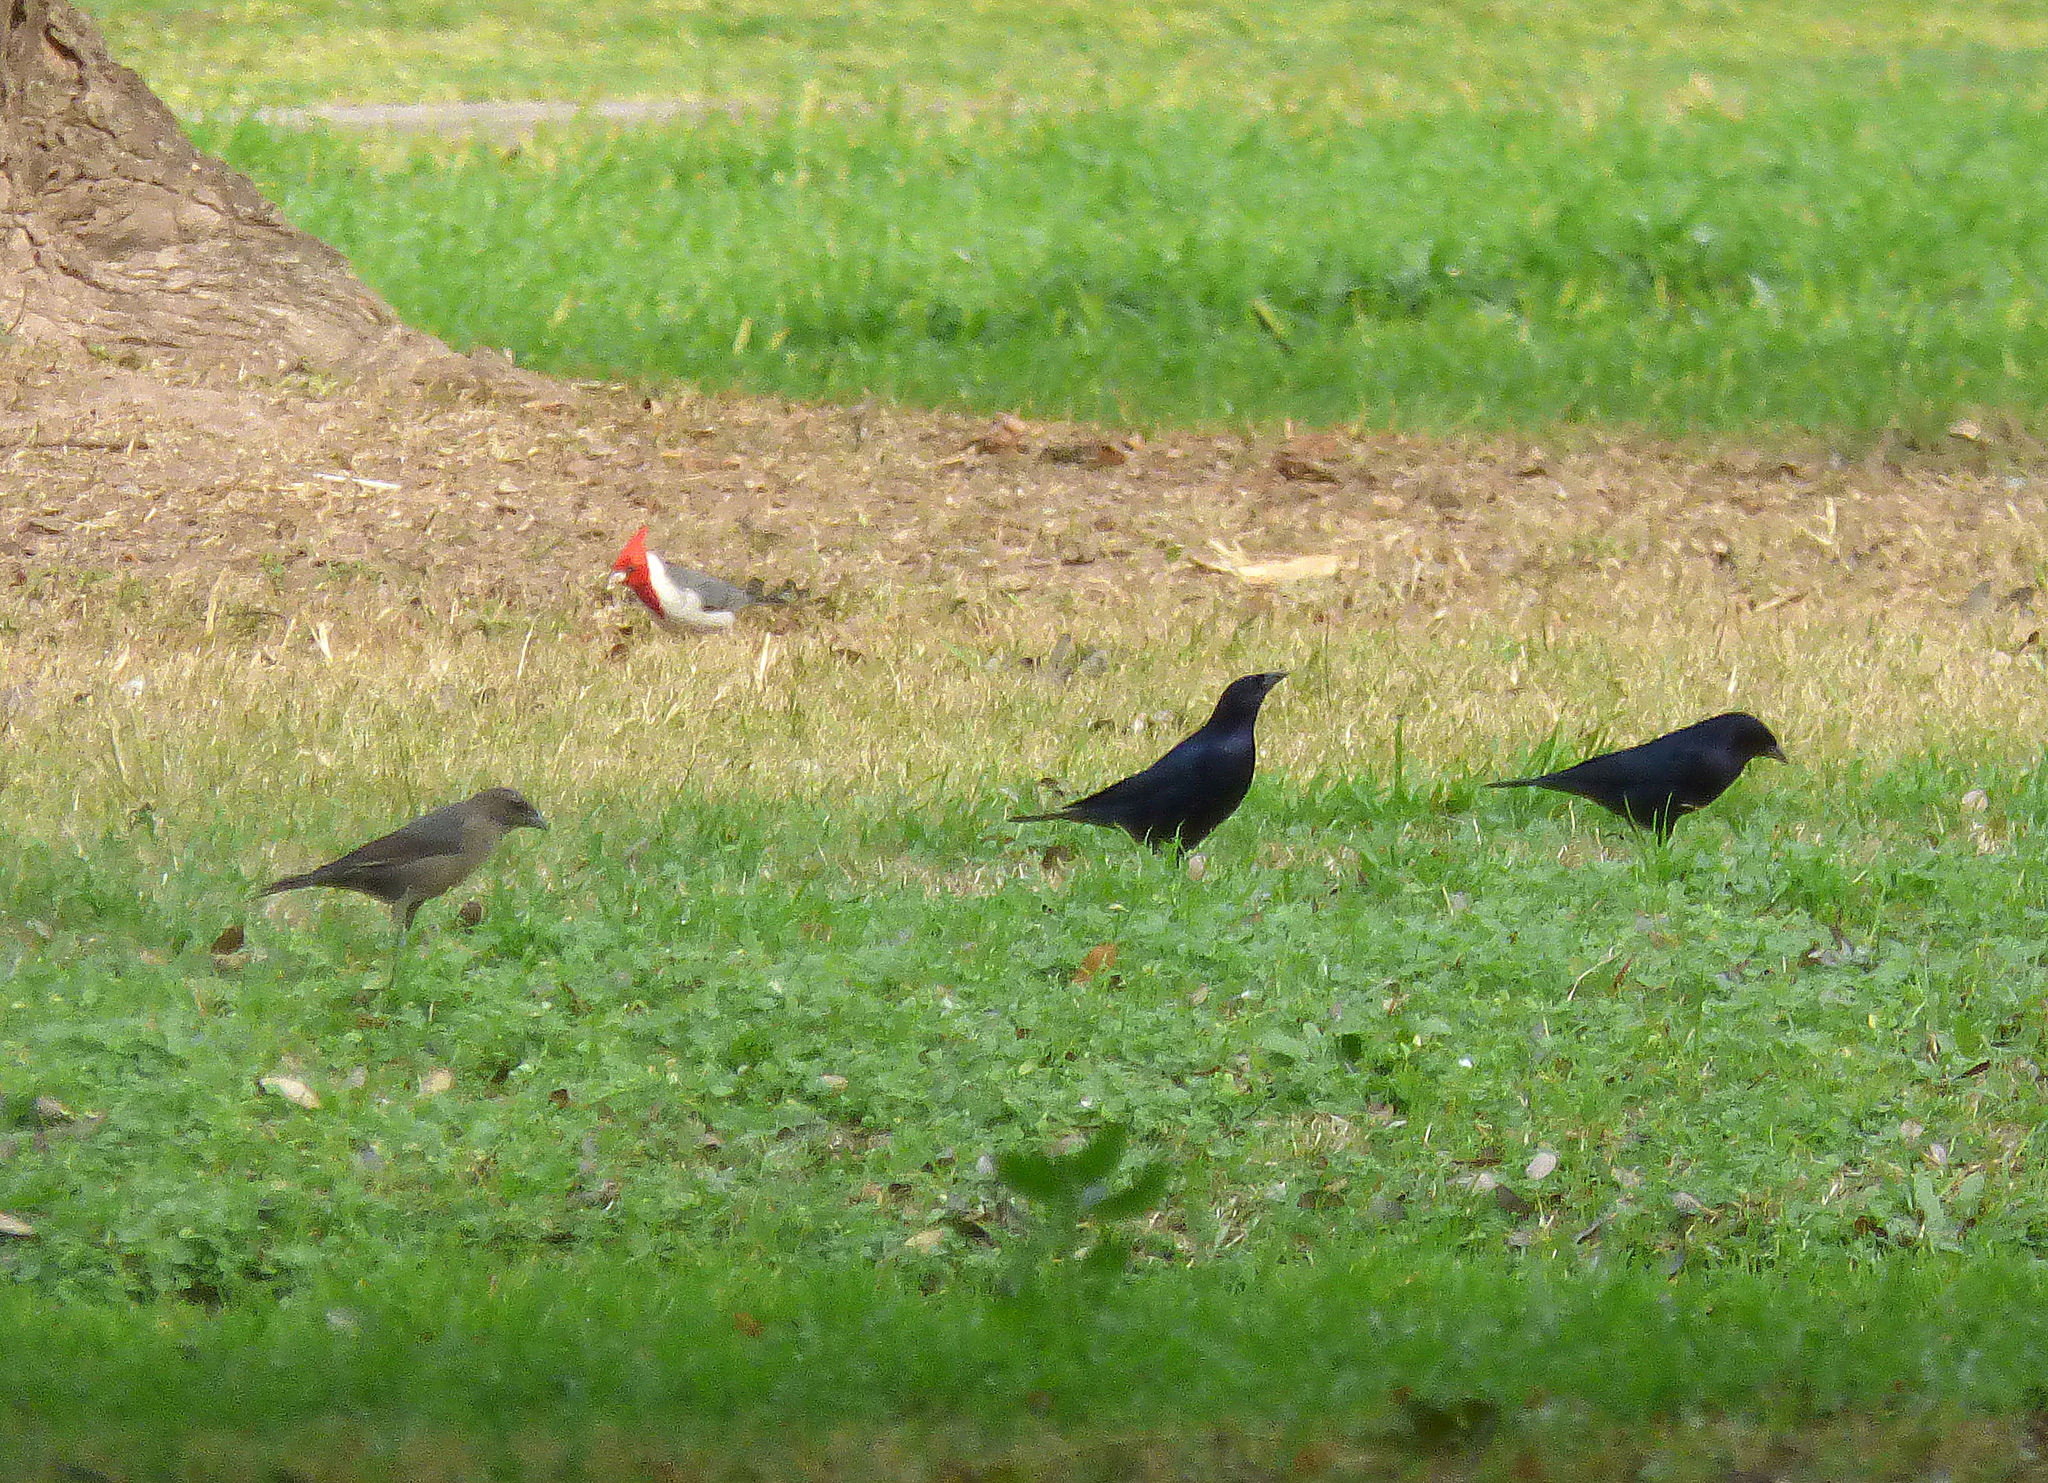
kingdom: Animalia
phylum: Chordata
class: Aves
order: Passeriformes
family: Icteridae
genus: Molothrus
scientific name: Molothrus bonariensis
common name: Shiny cowbird
